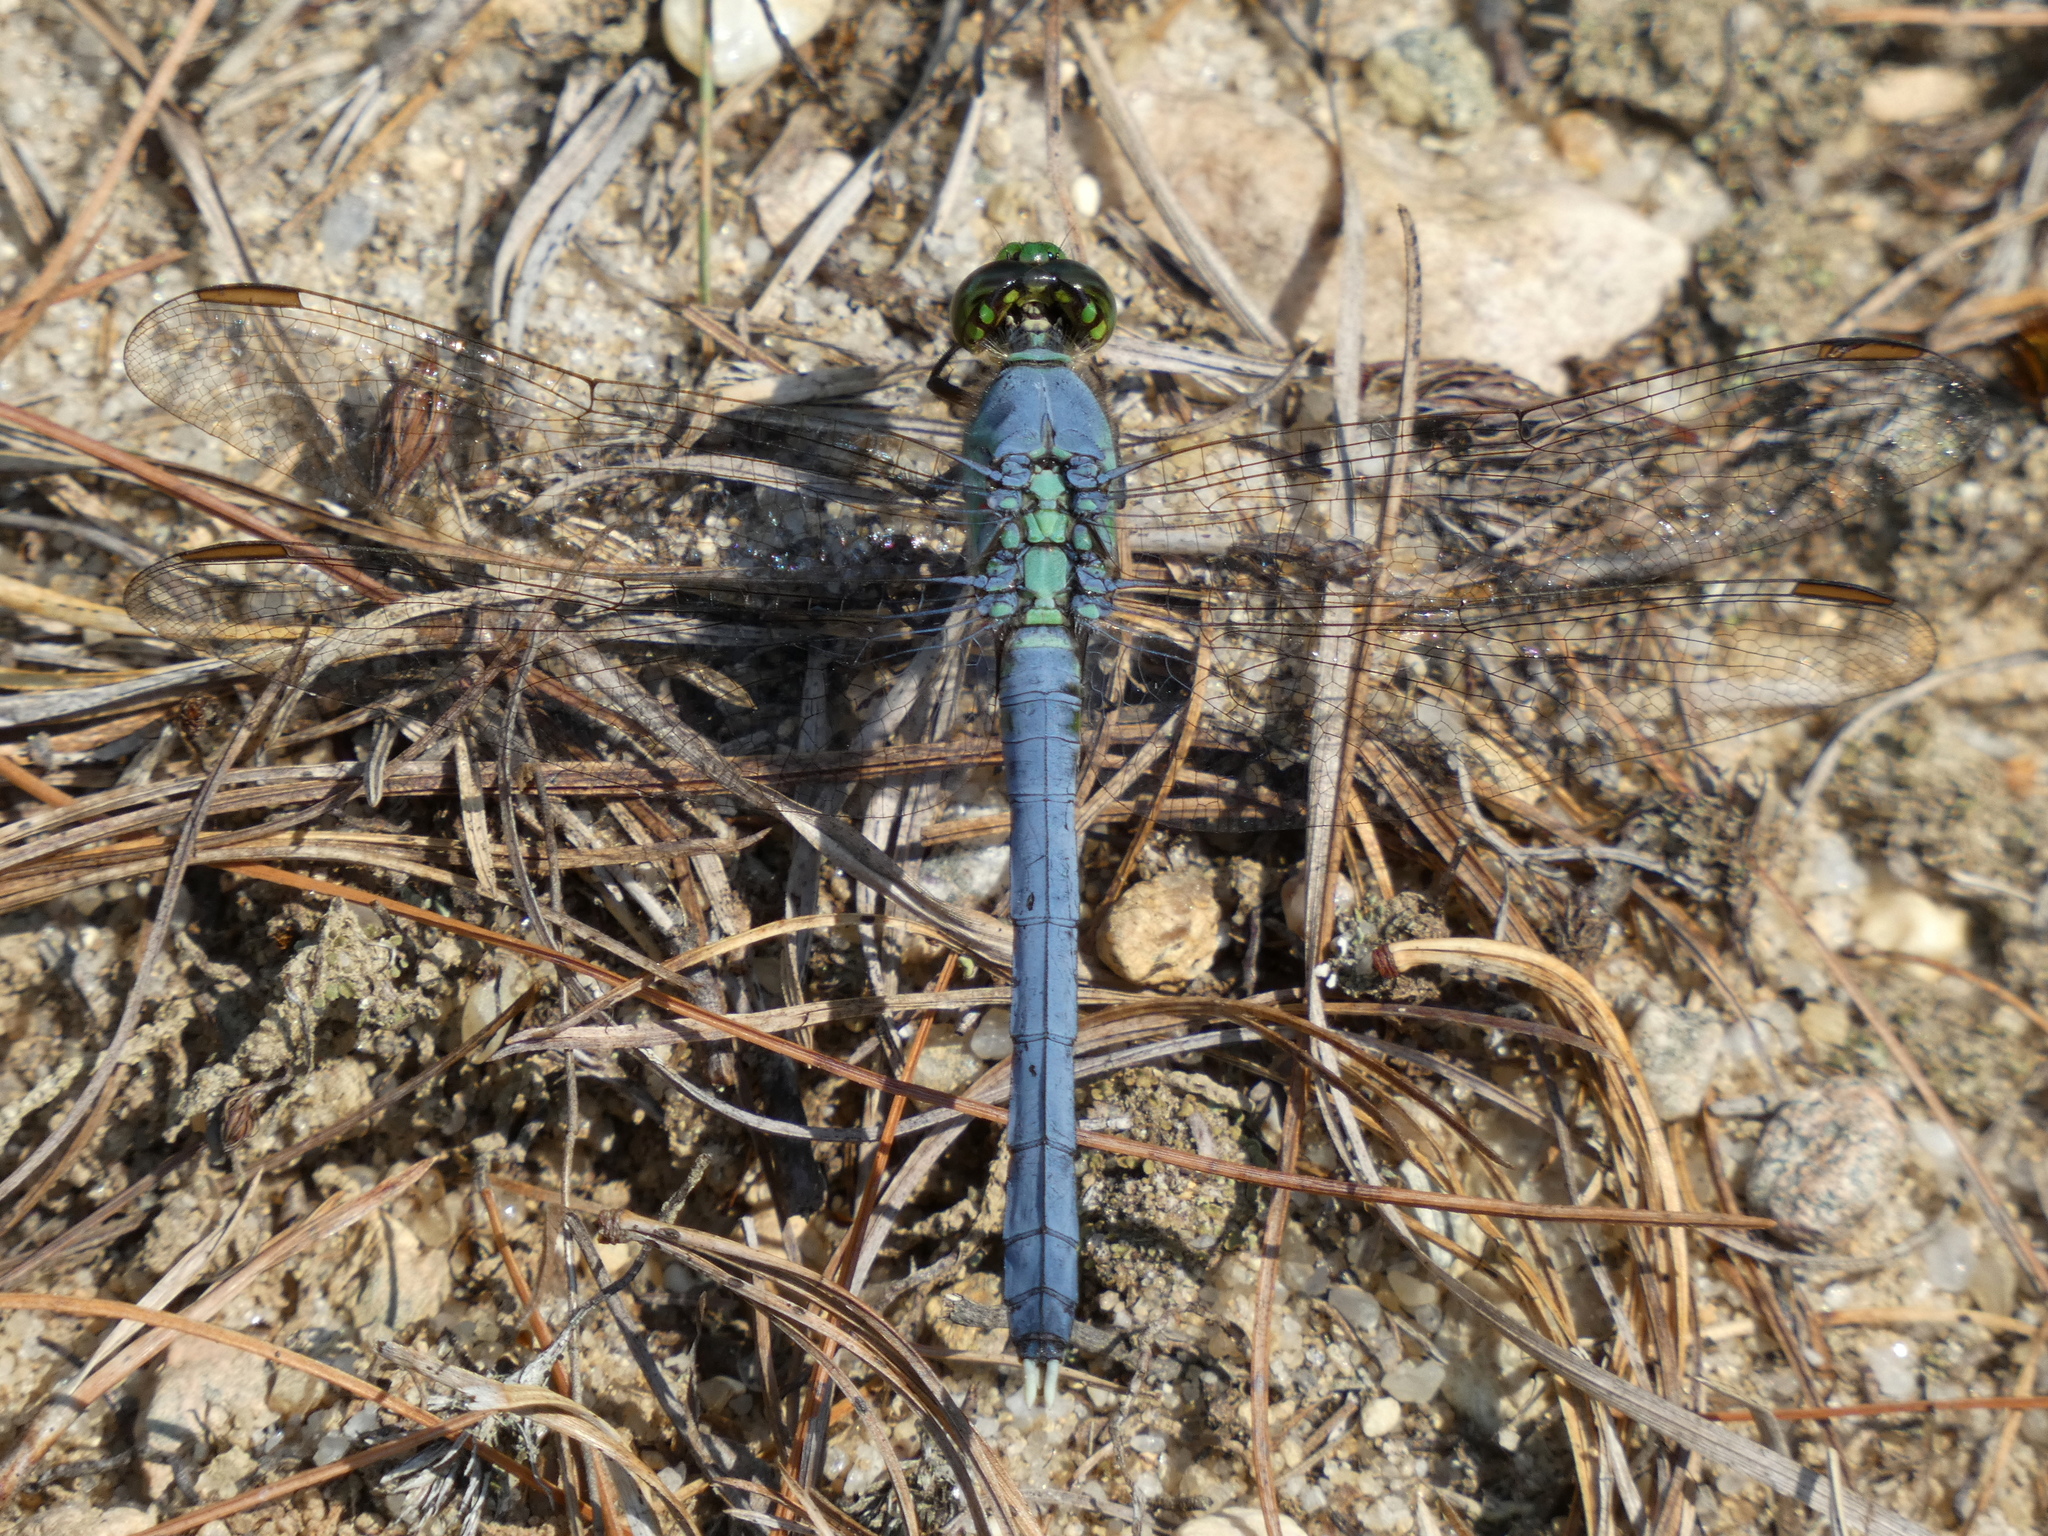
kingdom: Animalia
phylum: Arthropoda
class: Insecta
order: Odonata
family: Libellulidae
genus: Erythemis
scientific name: Erythemis simplicicollis
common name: Eastern pondhawk
